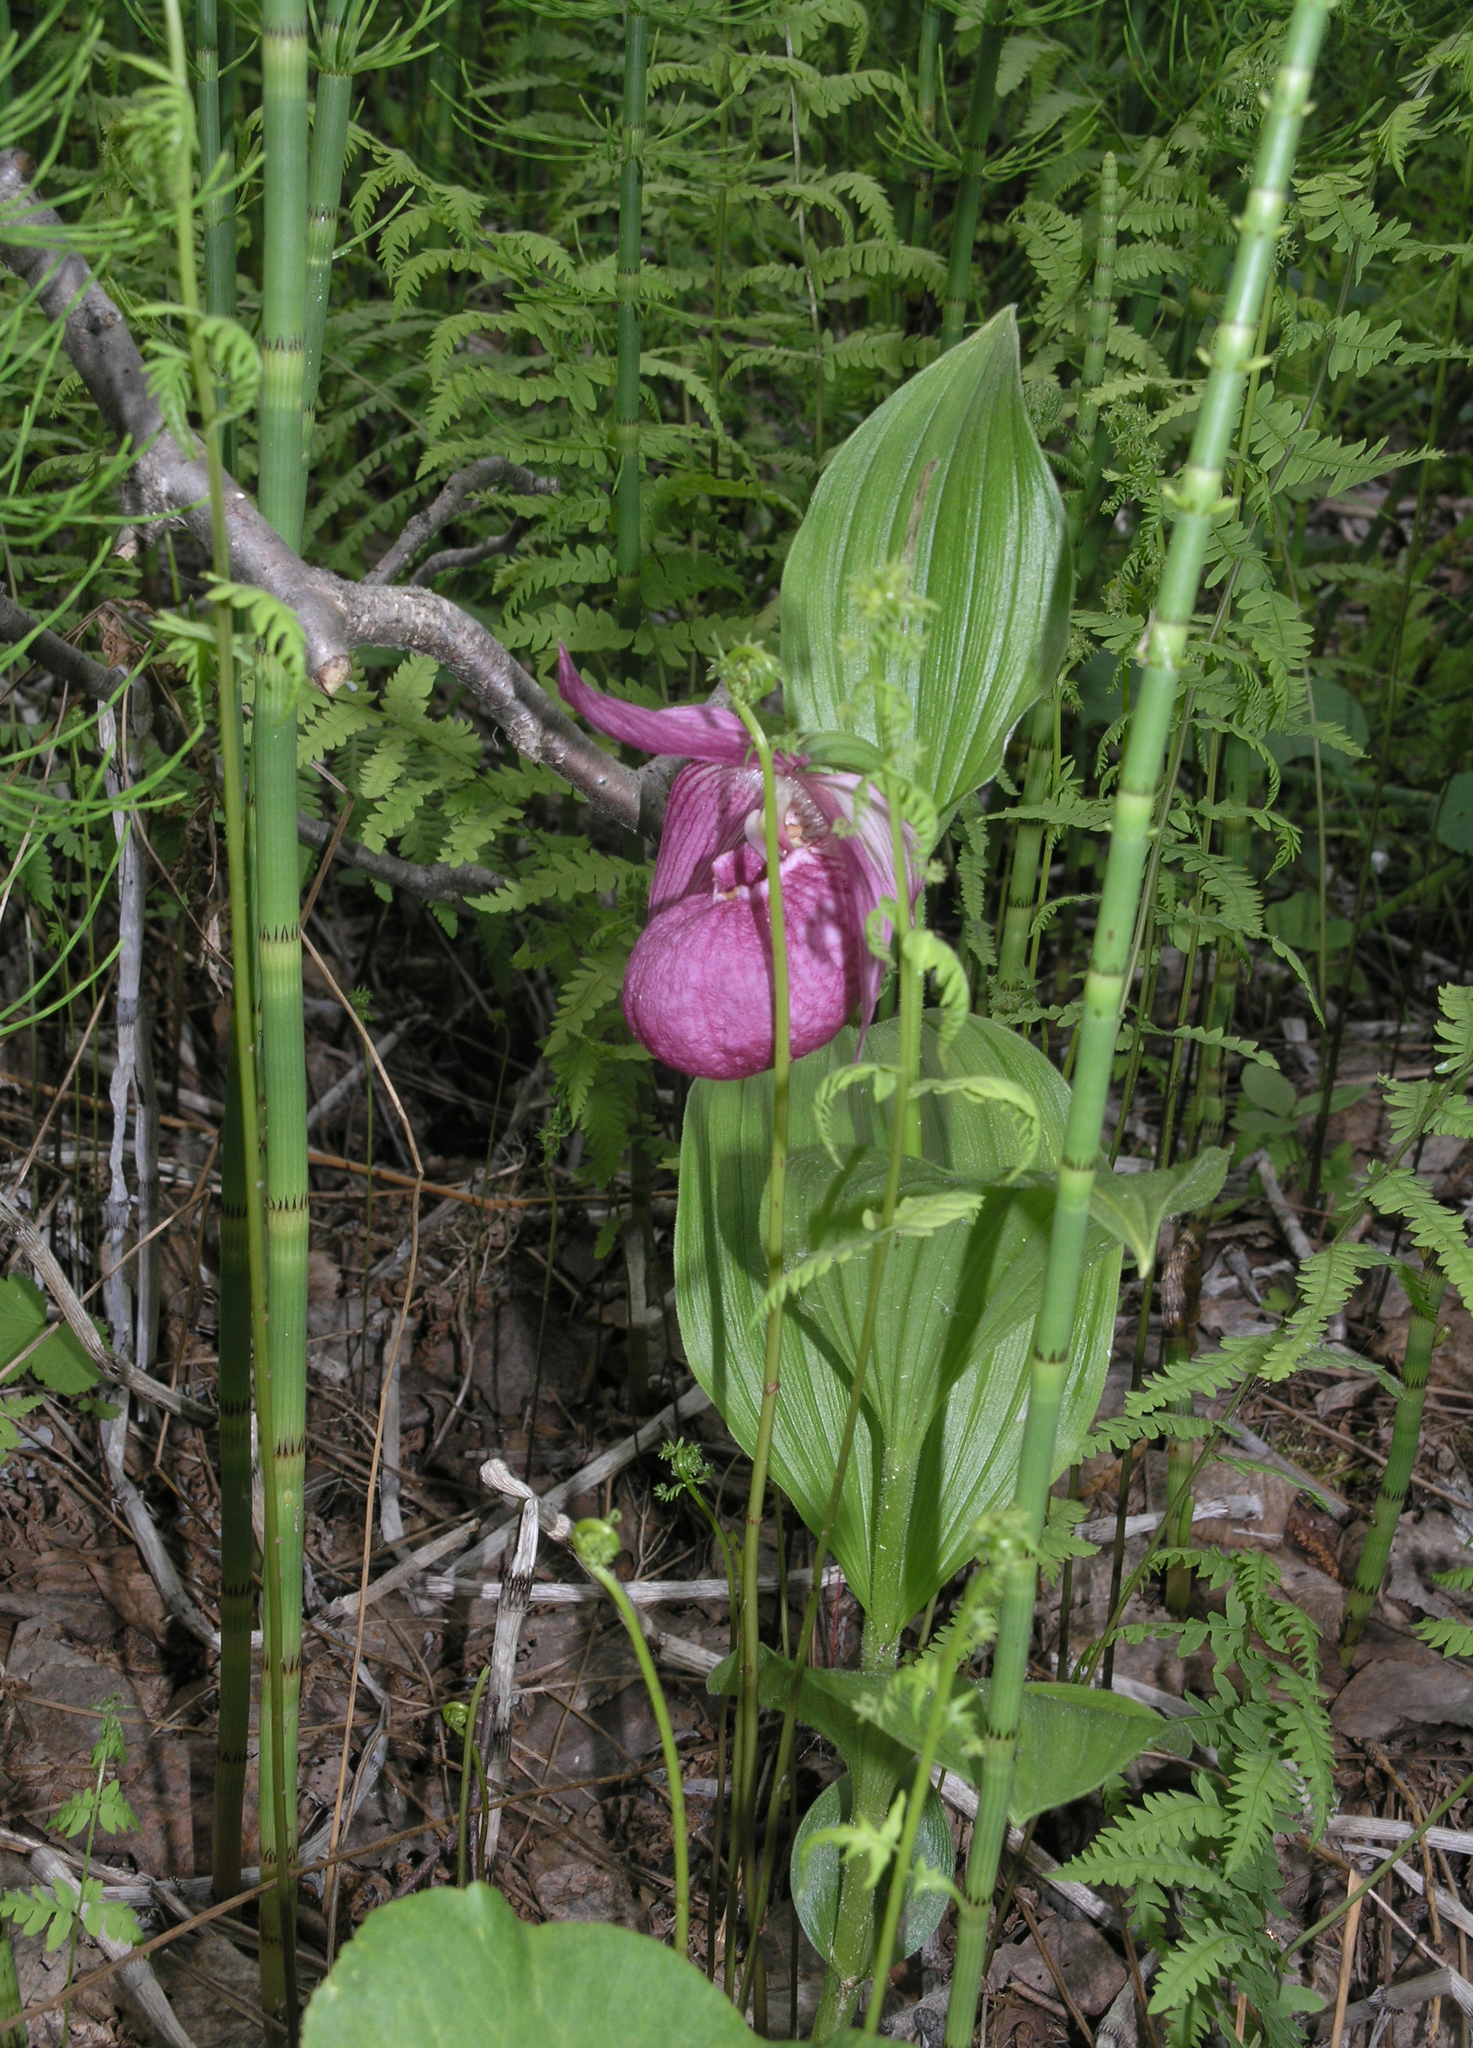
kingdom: Plantae
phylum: Tracheophyta
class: Liliopsida
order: Asparagales
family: Orchidaceae
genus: Cypripedium
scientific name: Cypripedium macranthos
